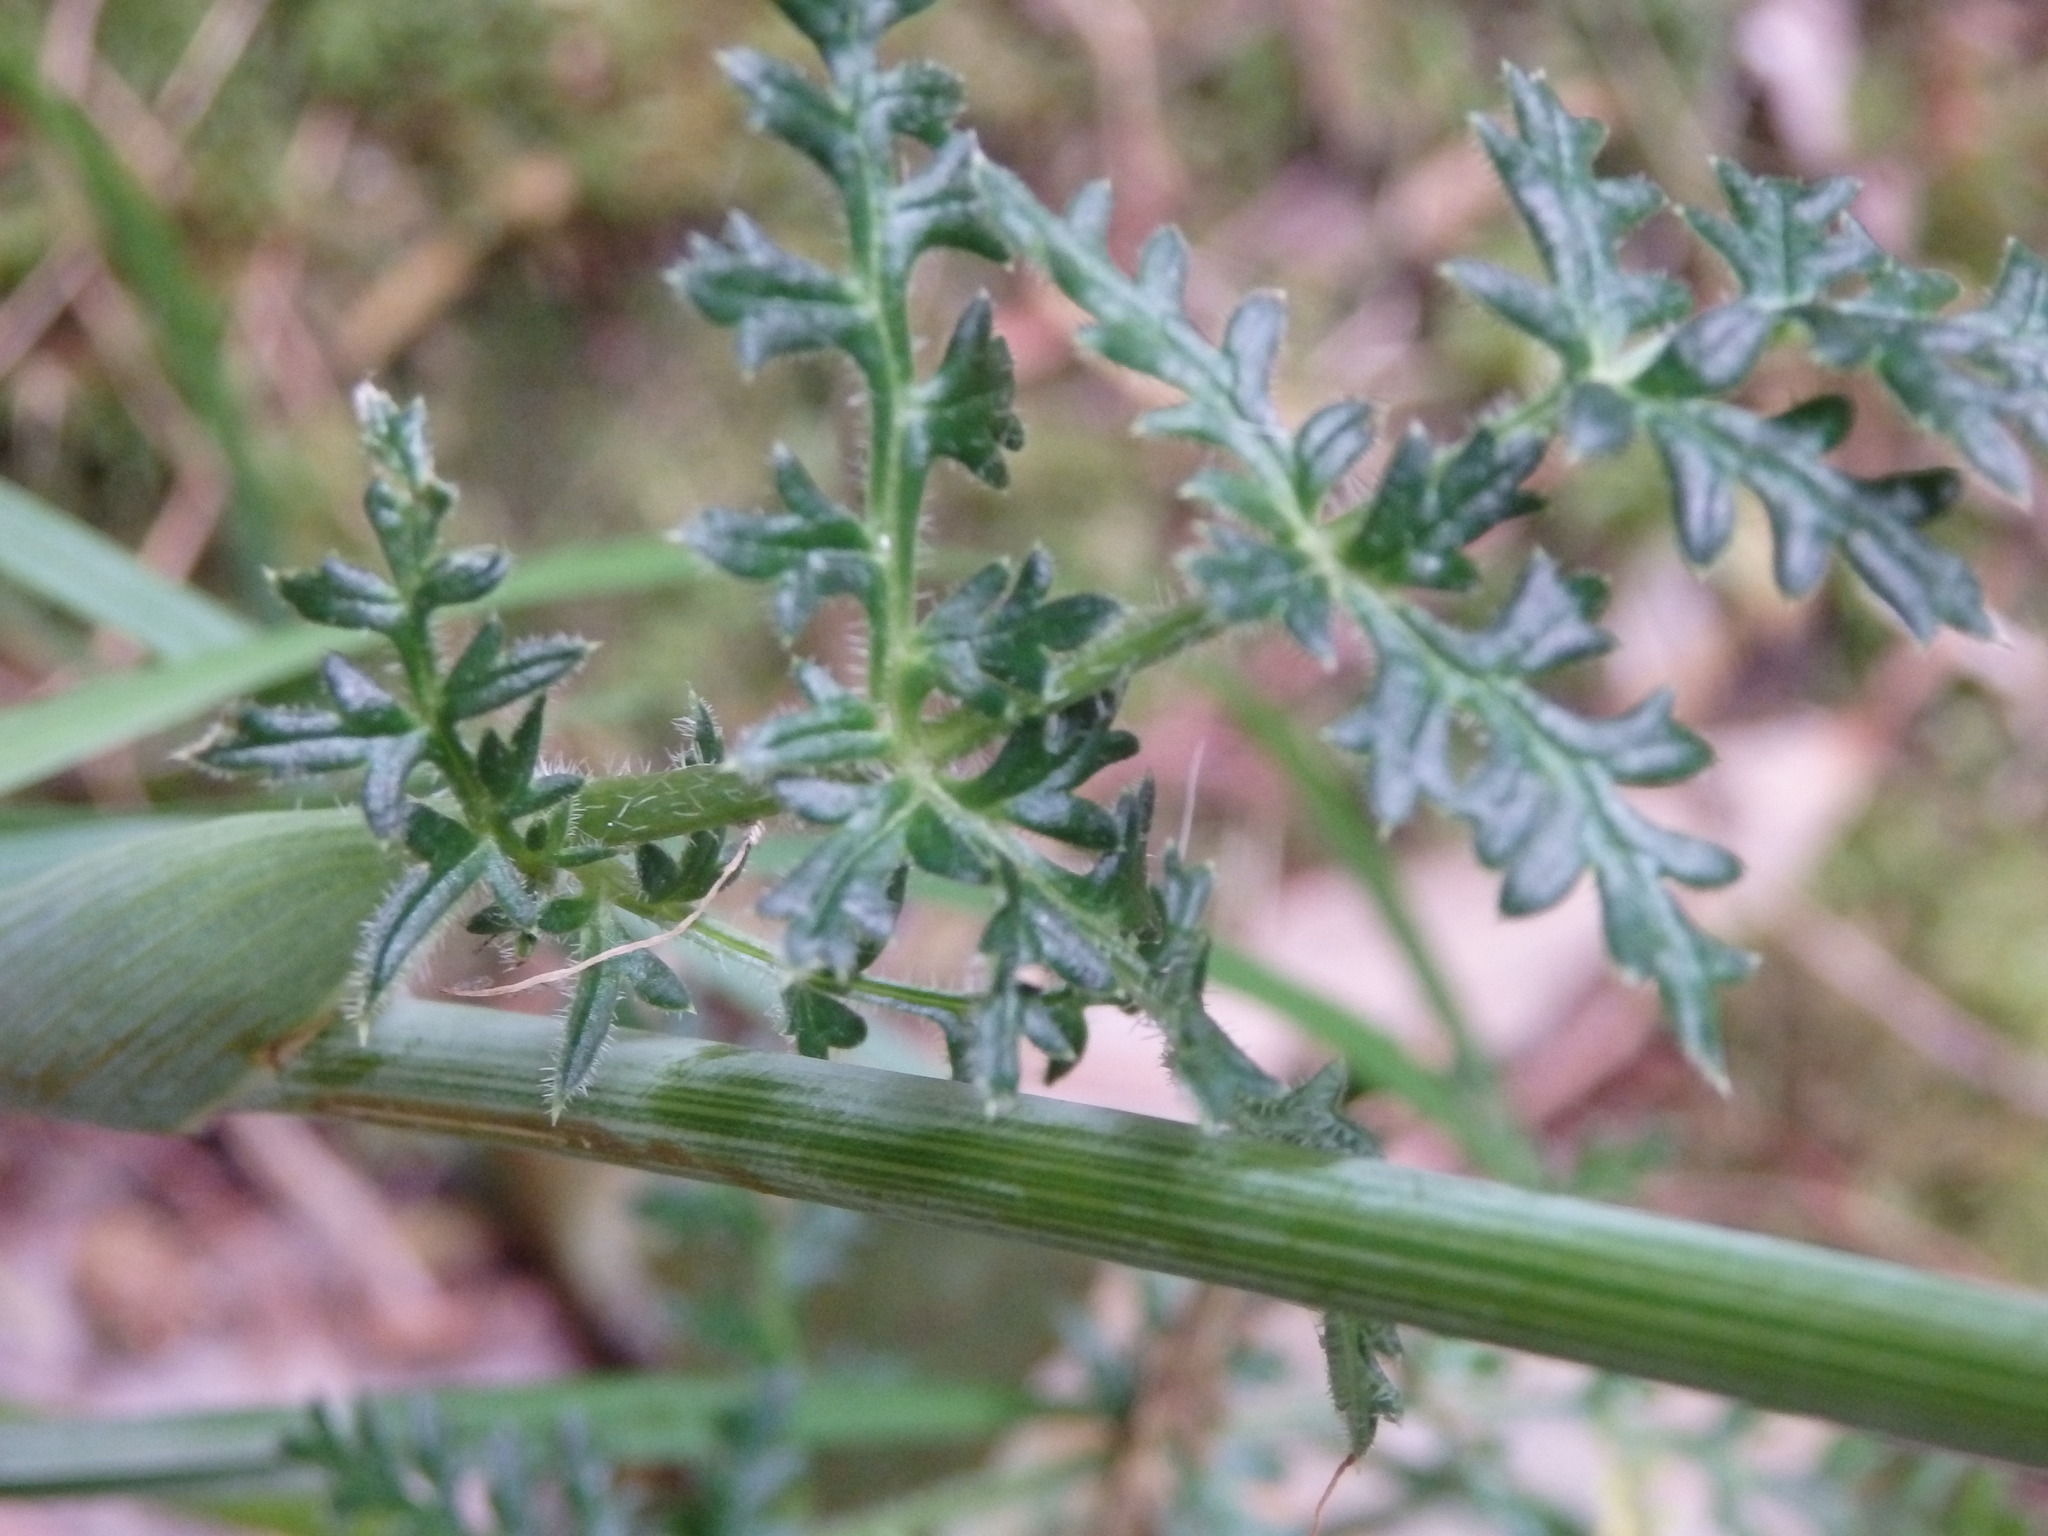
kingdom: Plantae
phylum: Tracheophyta
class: Magnoliopsida
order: Apiales
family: Apiaceae
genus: Thapsia
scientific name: Thapsia minor
